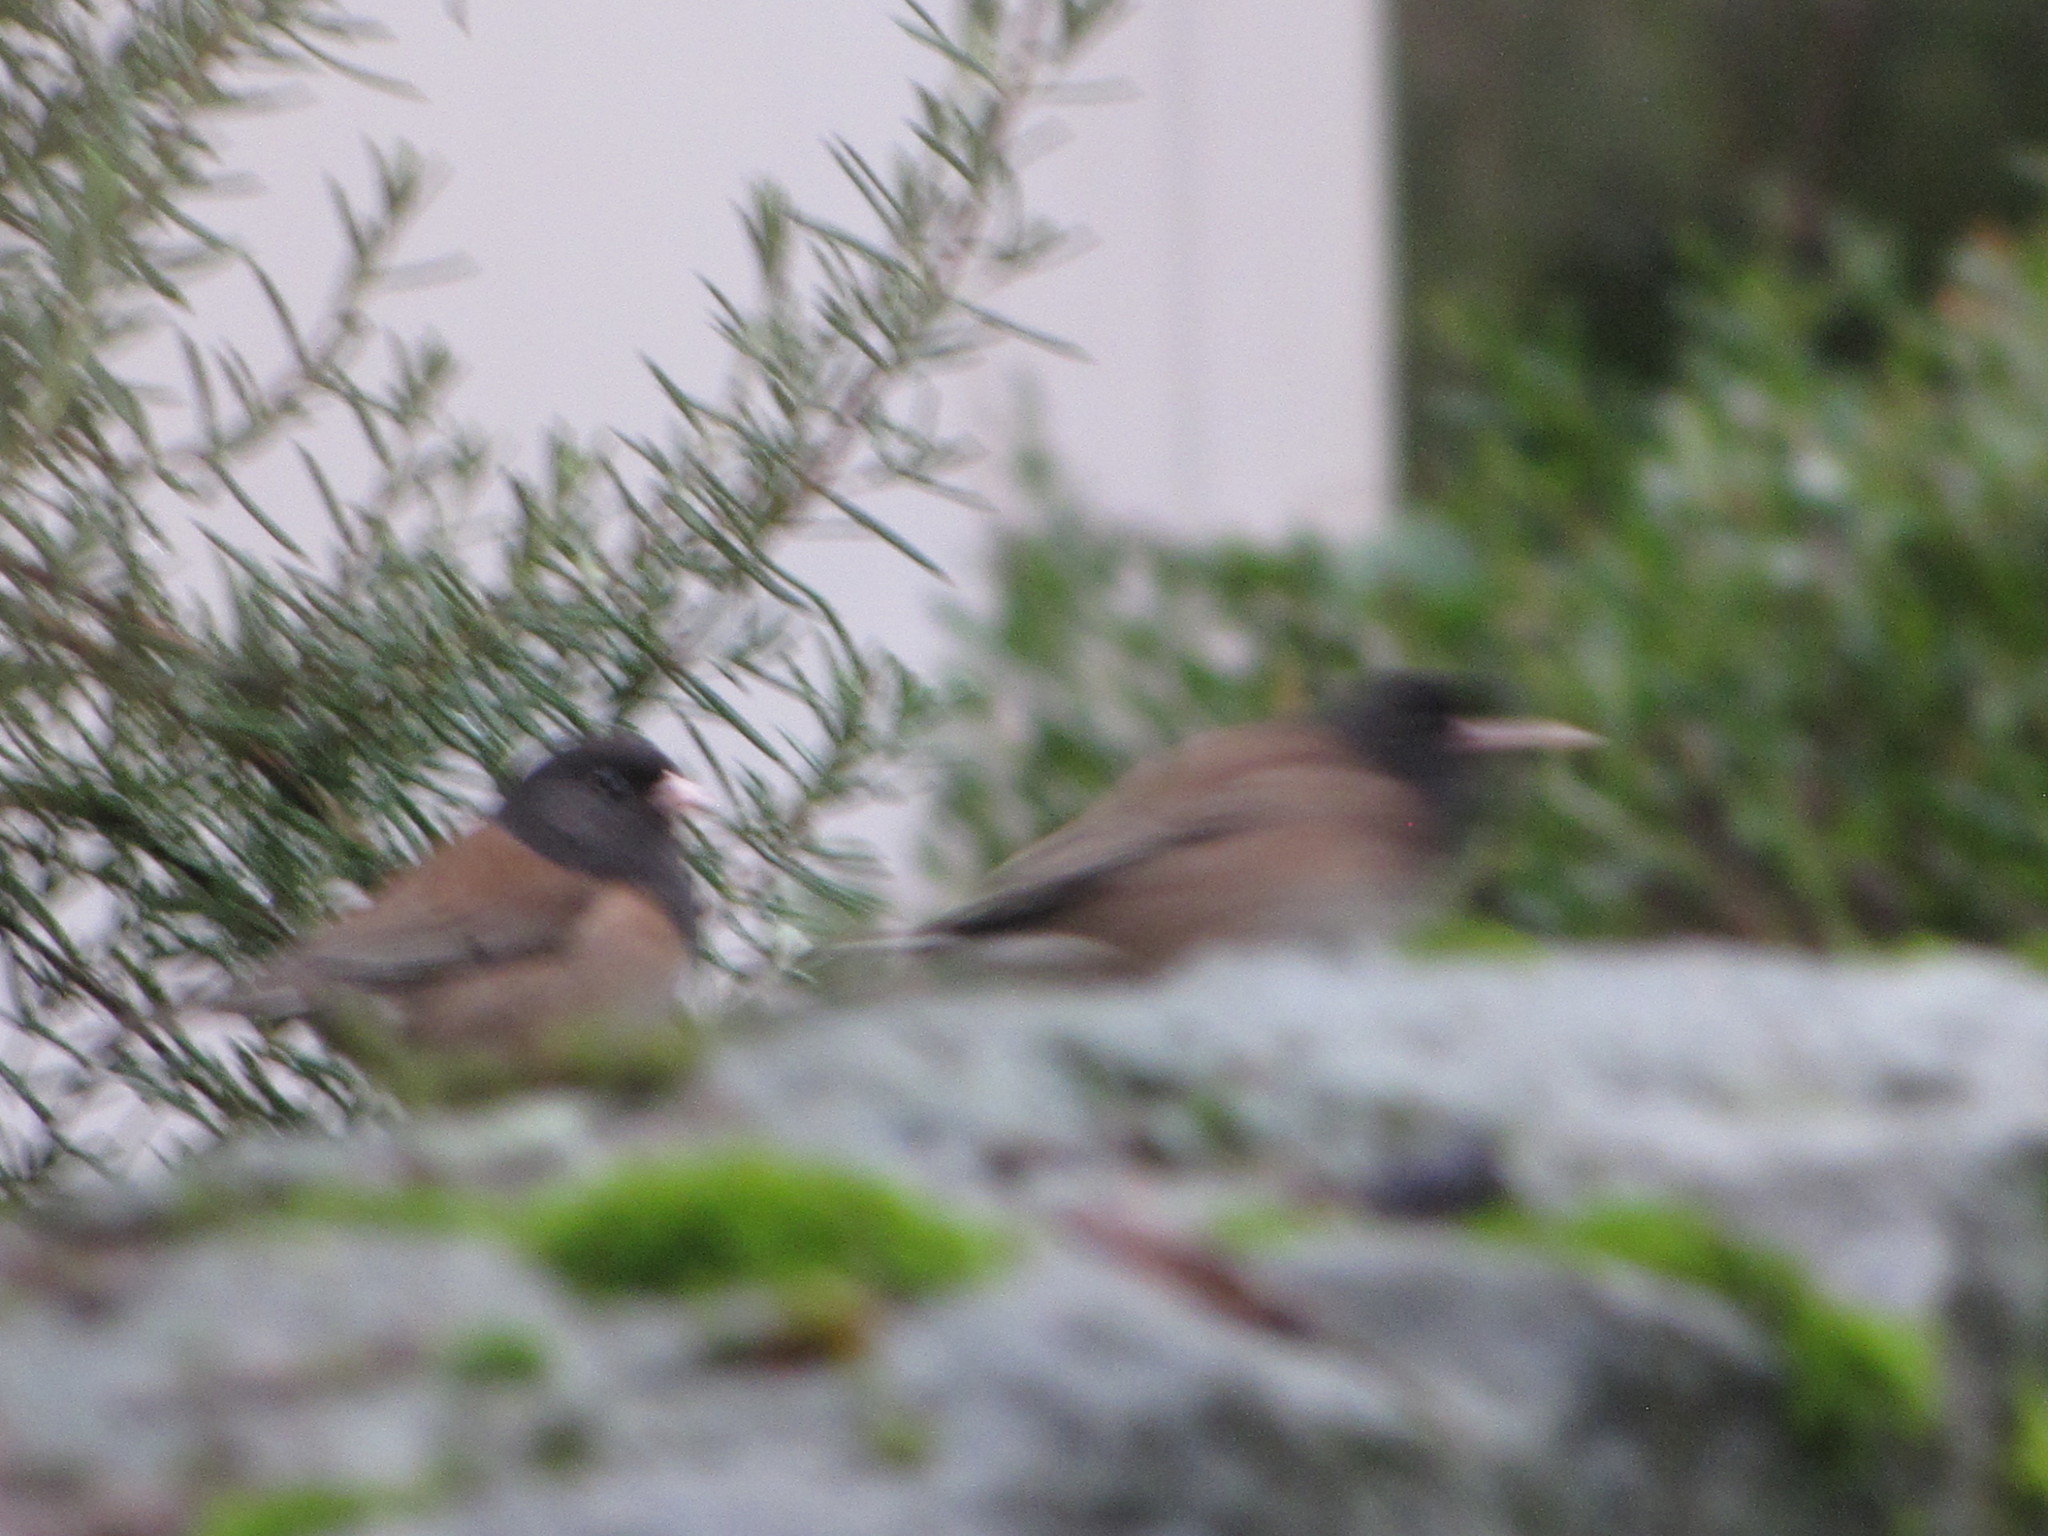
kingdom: Animalia
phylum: Chordata
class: Aves
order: Passeriformes
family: Passerellidae
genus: Junco
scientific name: Junco hyemalis
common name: Dark-eyed junco
